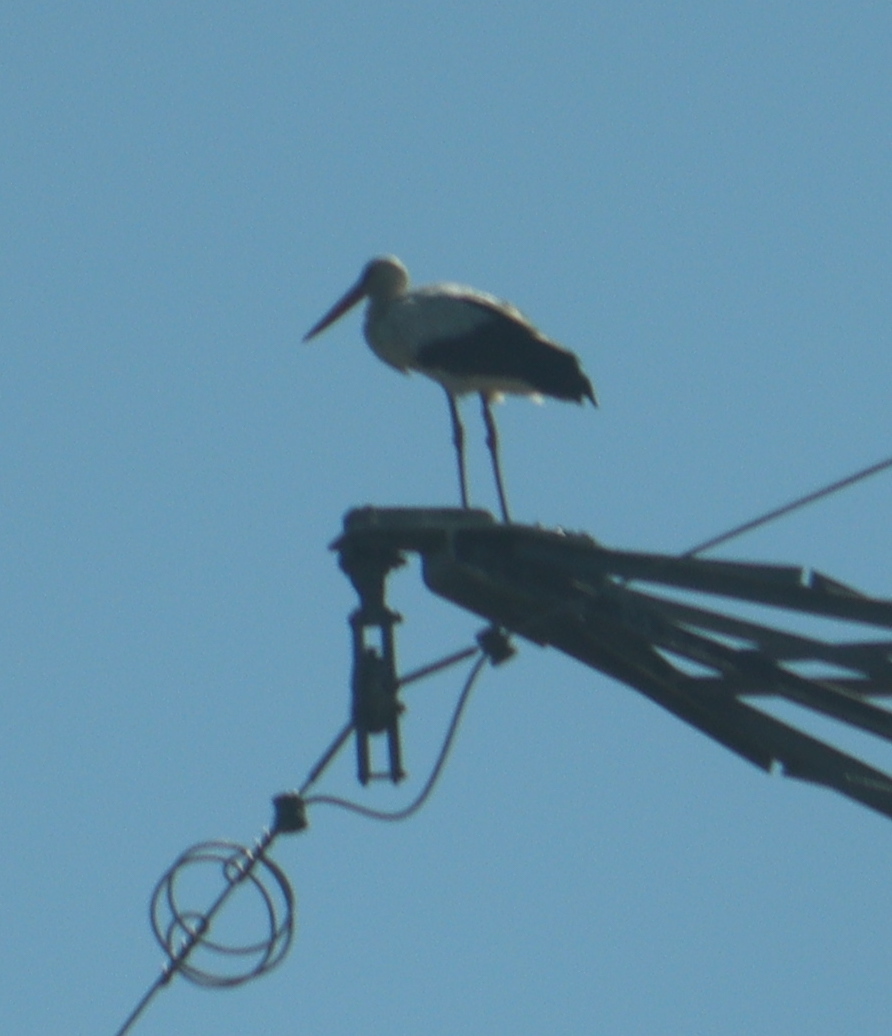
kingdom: Animalia
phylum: Chordata
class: Aves
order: Ciconiiformes
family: Ciconiidae
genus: Ciconia
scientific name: Ciconia ciconia
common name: White stork
